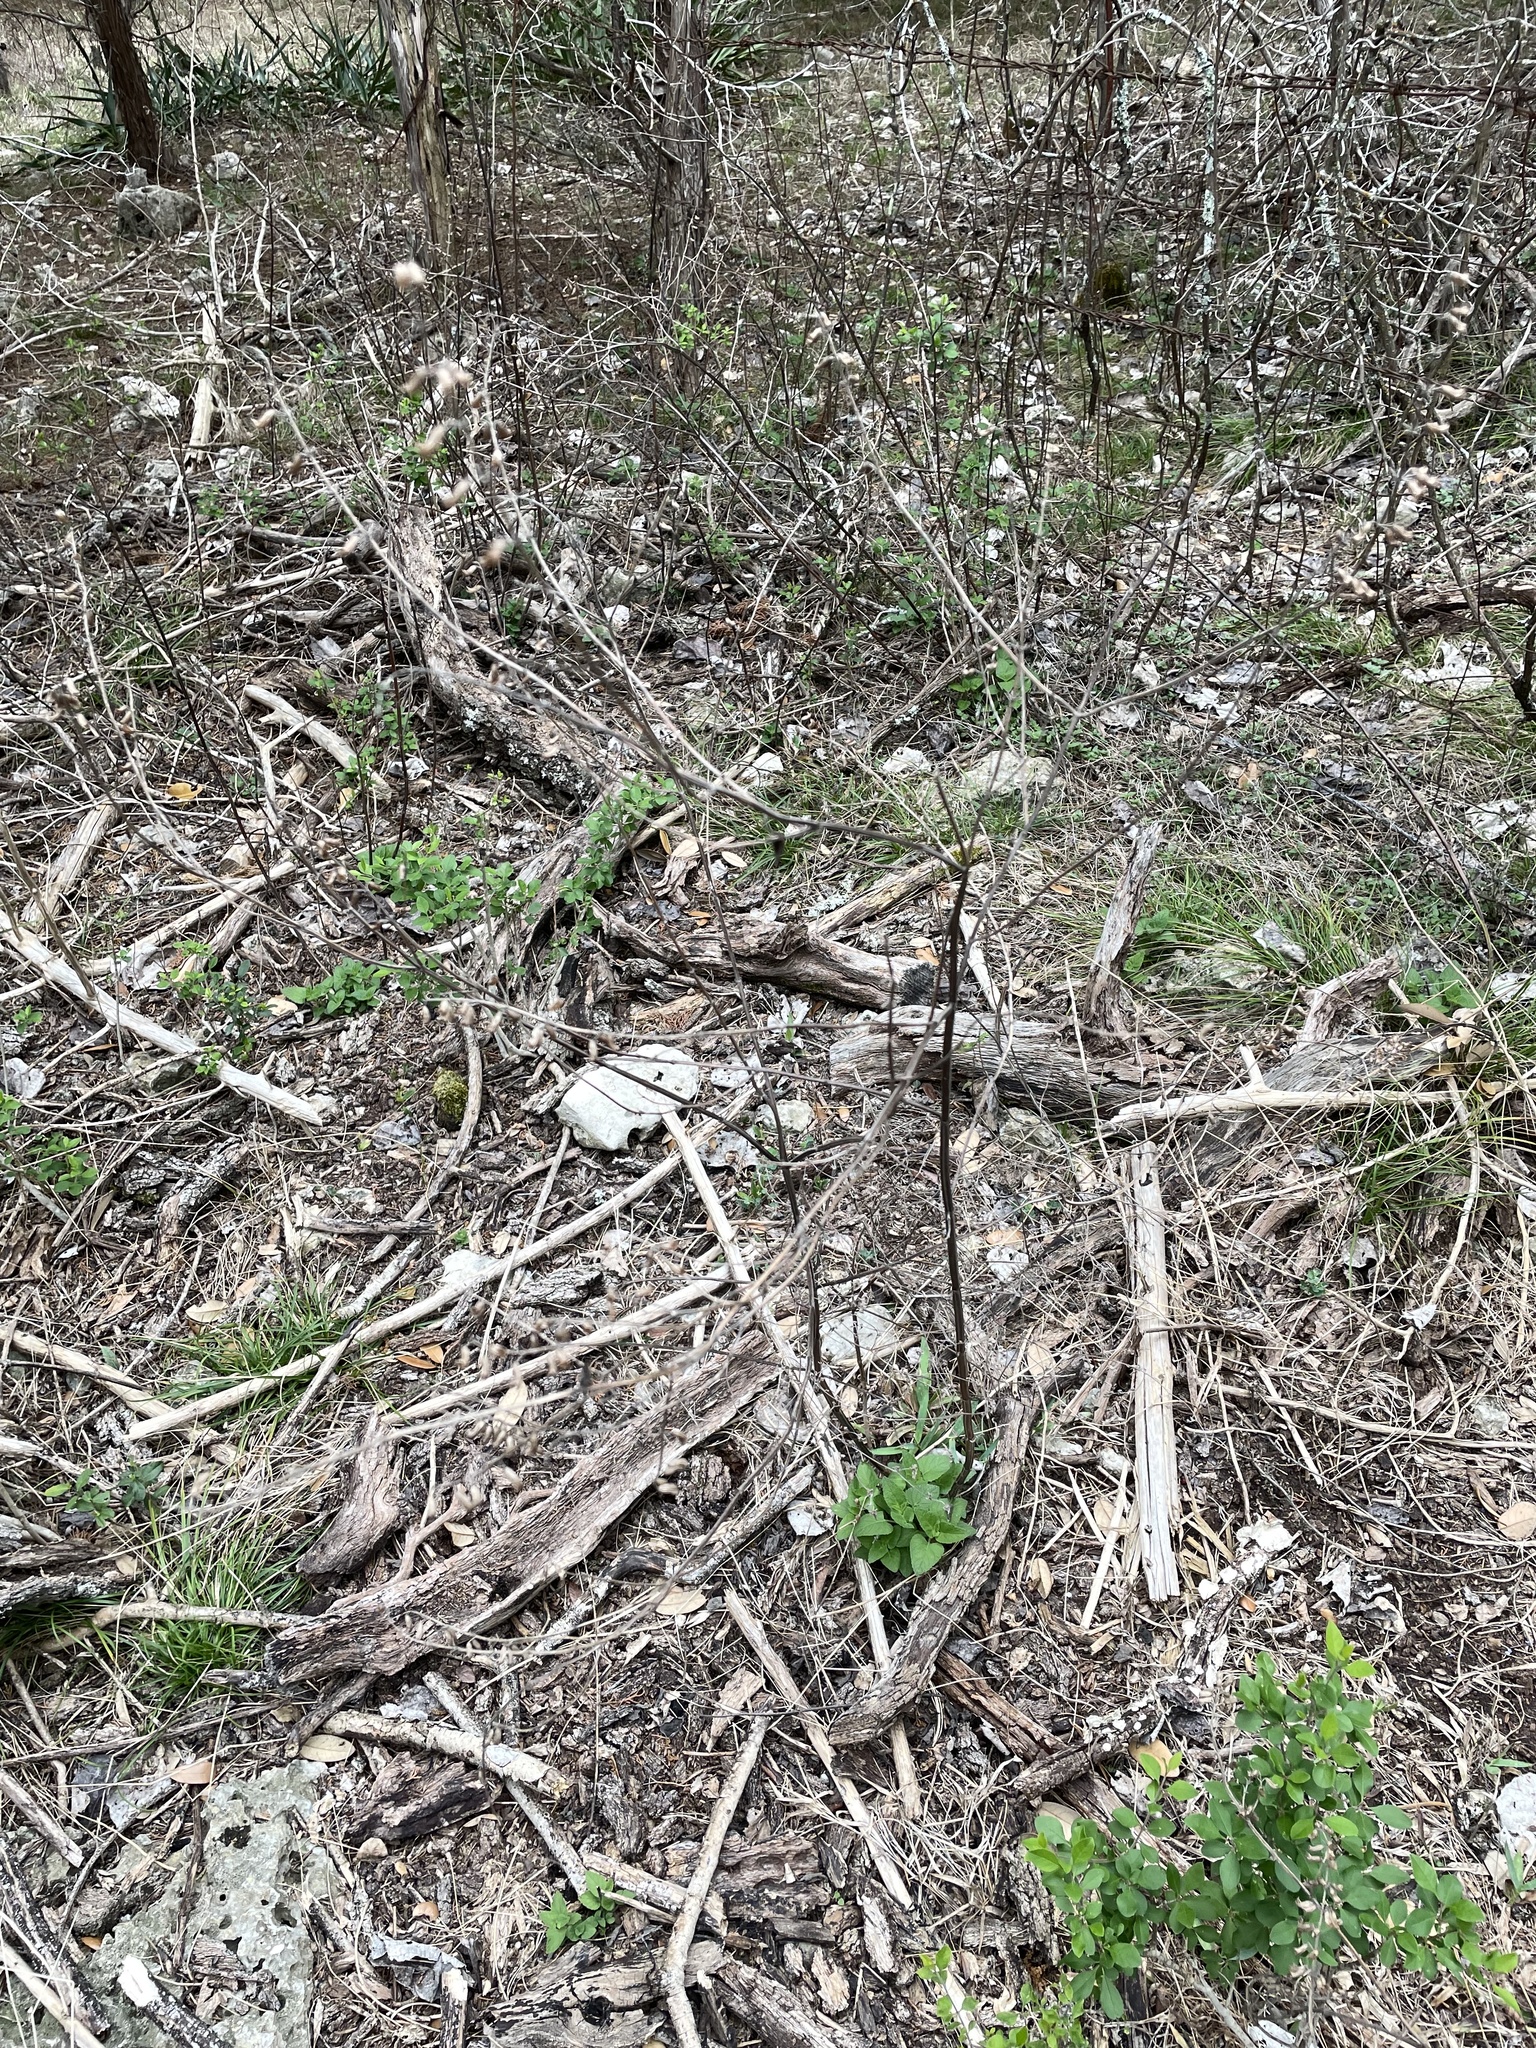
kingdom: Plantae
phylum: Tracheophyta
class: Magnoliopsida
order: Lamiales
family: Lamiaceae
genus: Salvia
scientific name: Salvia coccinea
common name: Blood sage
